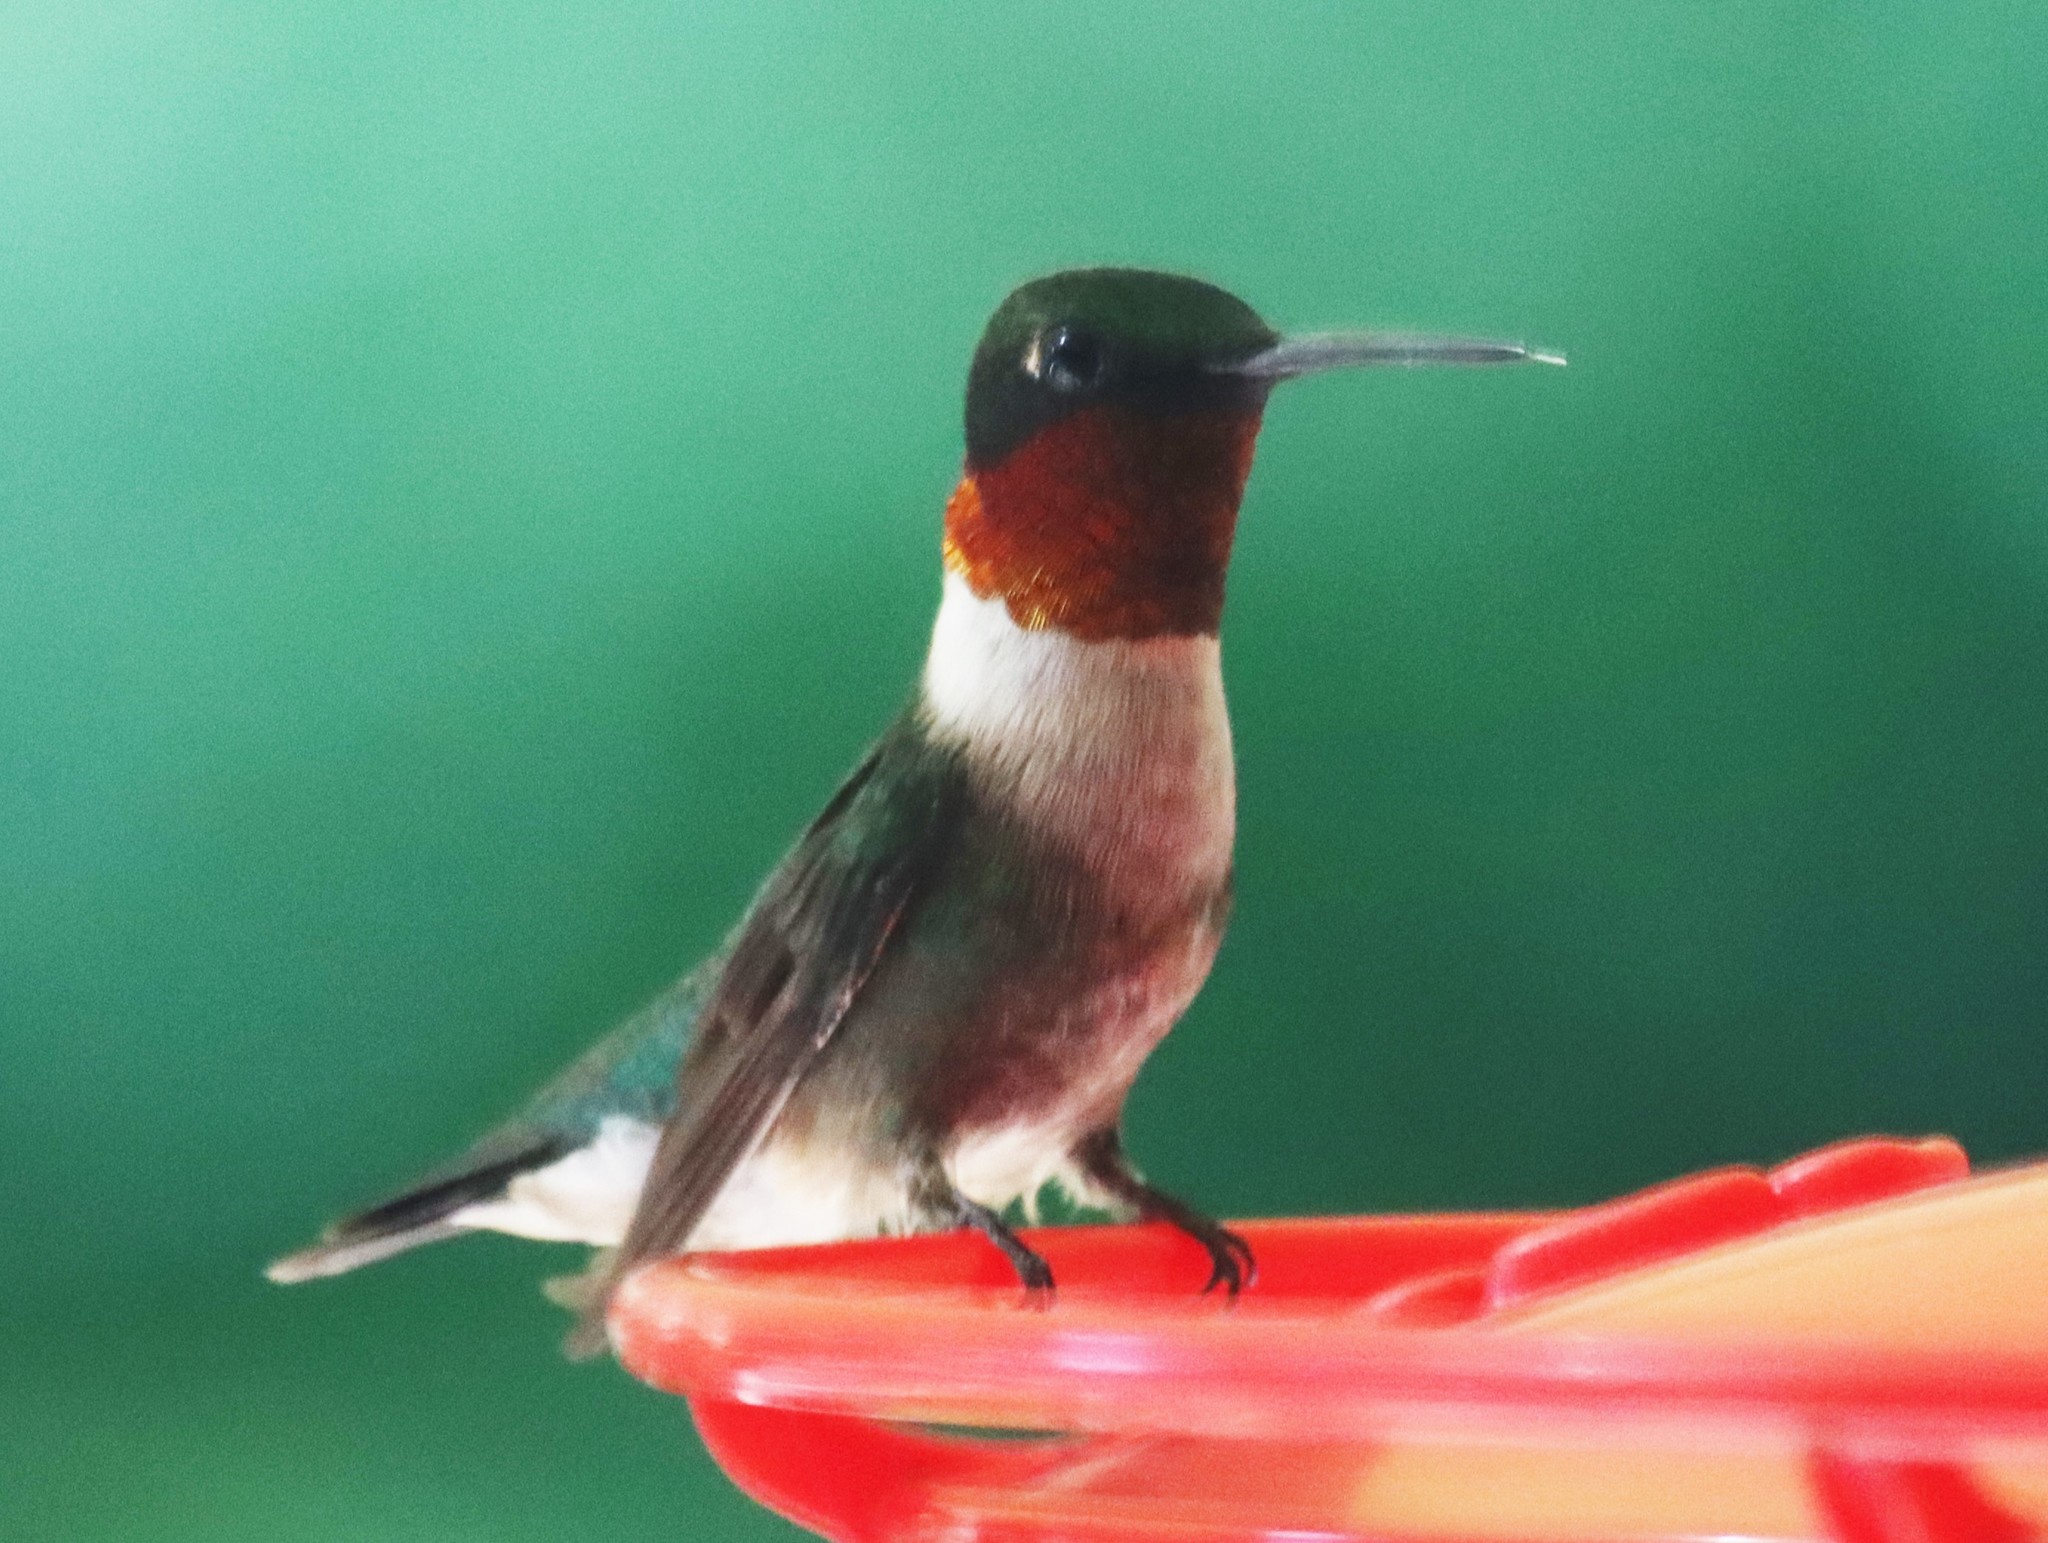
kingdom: Animalia
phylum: Chordata
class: Aves
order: Apodiformes
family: Trochilidae
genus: Archilochus
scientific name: Archilochus colubris
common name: Ruby-throated hummingbird
